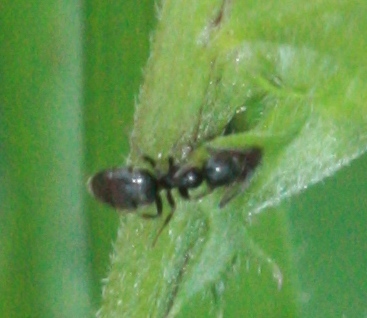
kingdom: Animalia
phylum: Arthropoda
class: Insecta
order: Hymenoptera
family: Formicidae
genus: Prenolepis
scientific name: Prenolepis imparis
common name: Small honey ant
